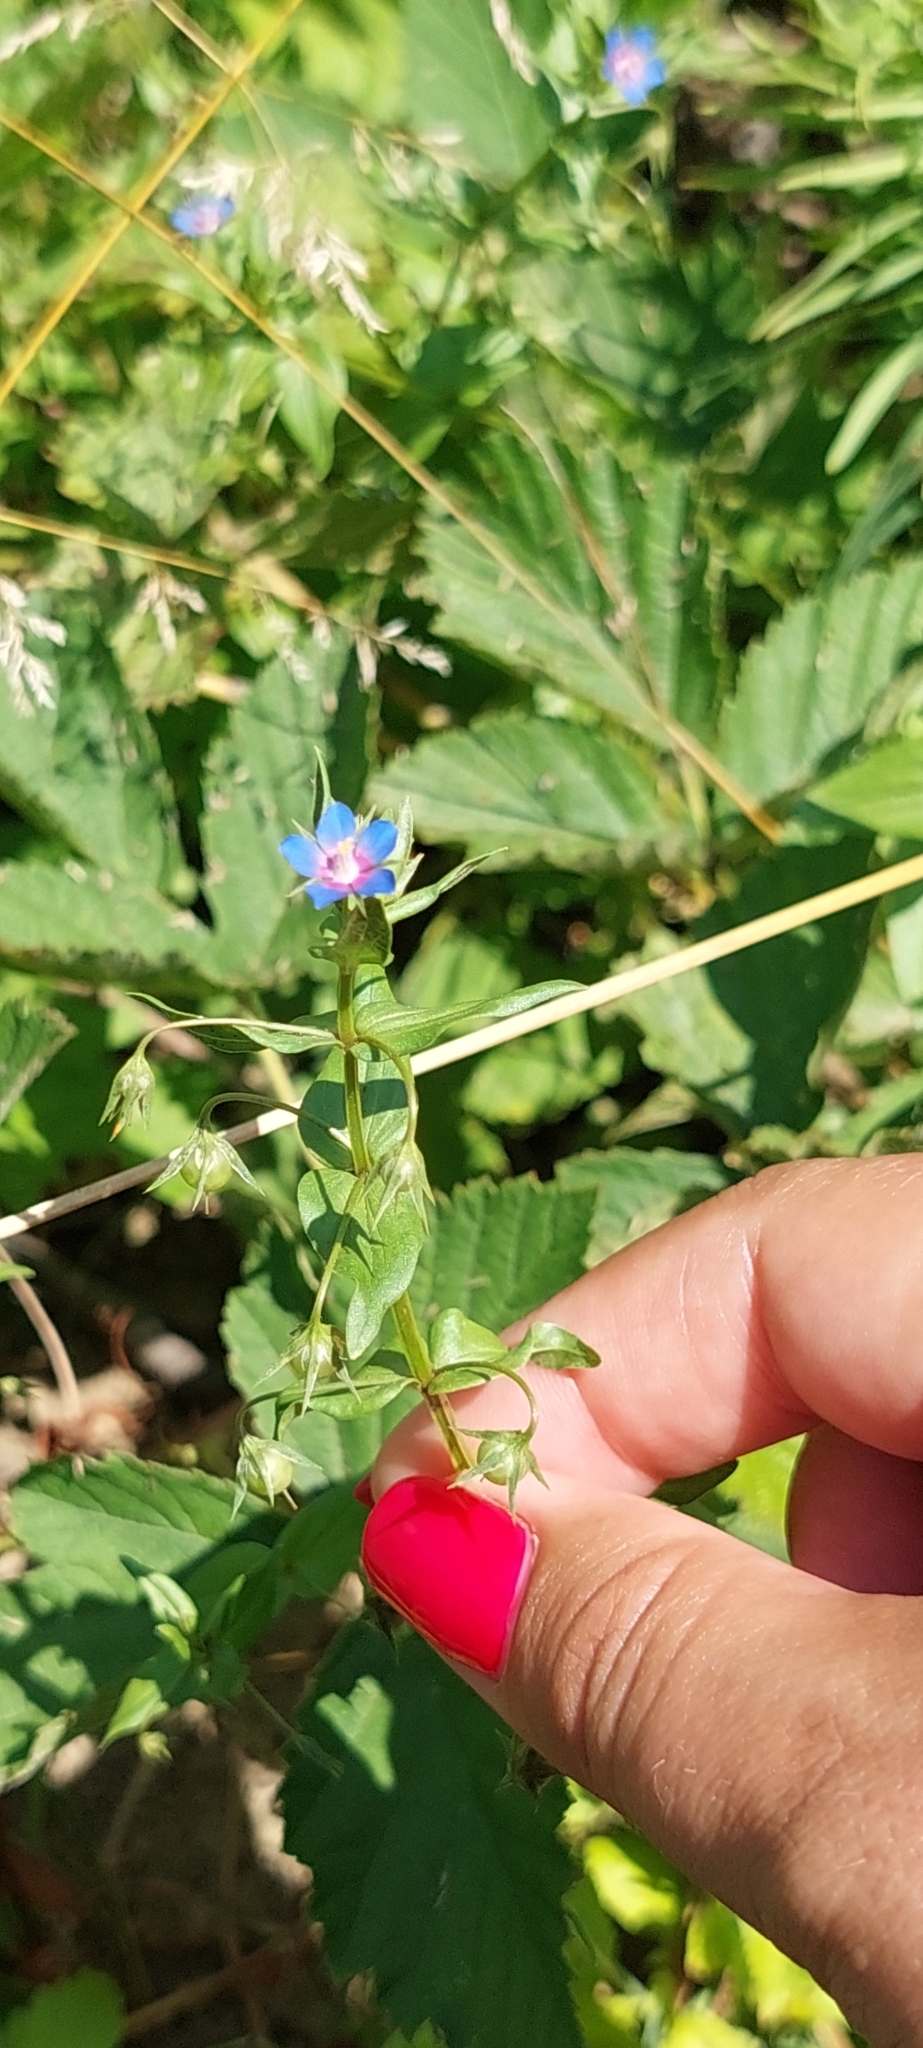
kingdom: Plantae
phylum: Tracheophyta
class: Magnoliopsida
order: Ericales
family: Primulaceae
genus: Lysimachia
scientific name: Lysimachia foemina
